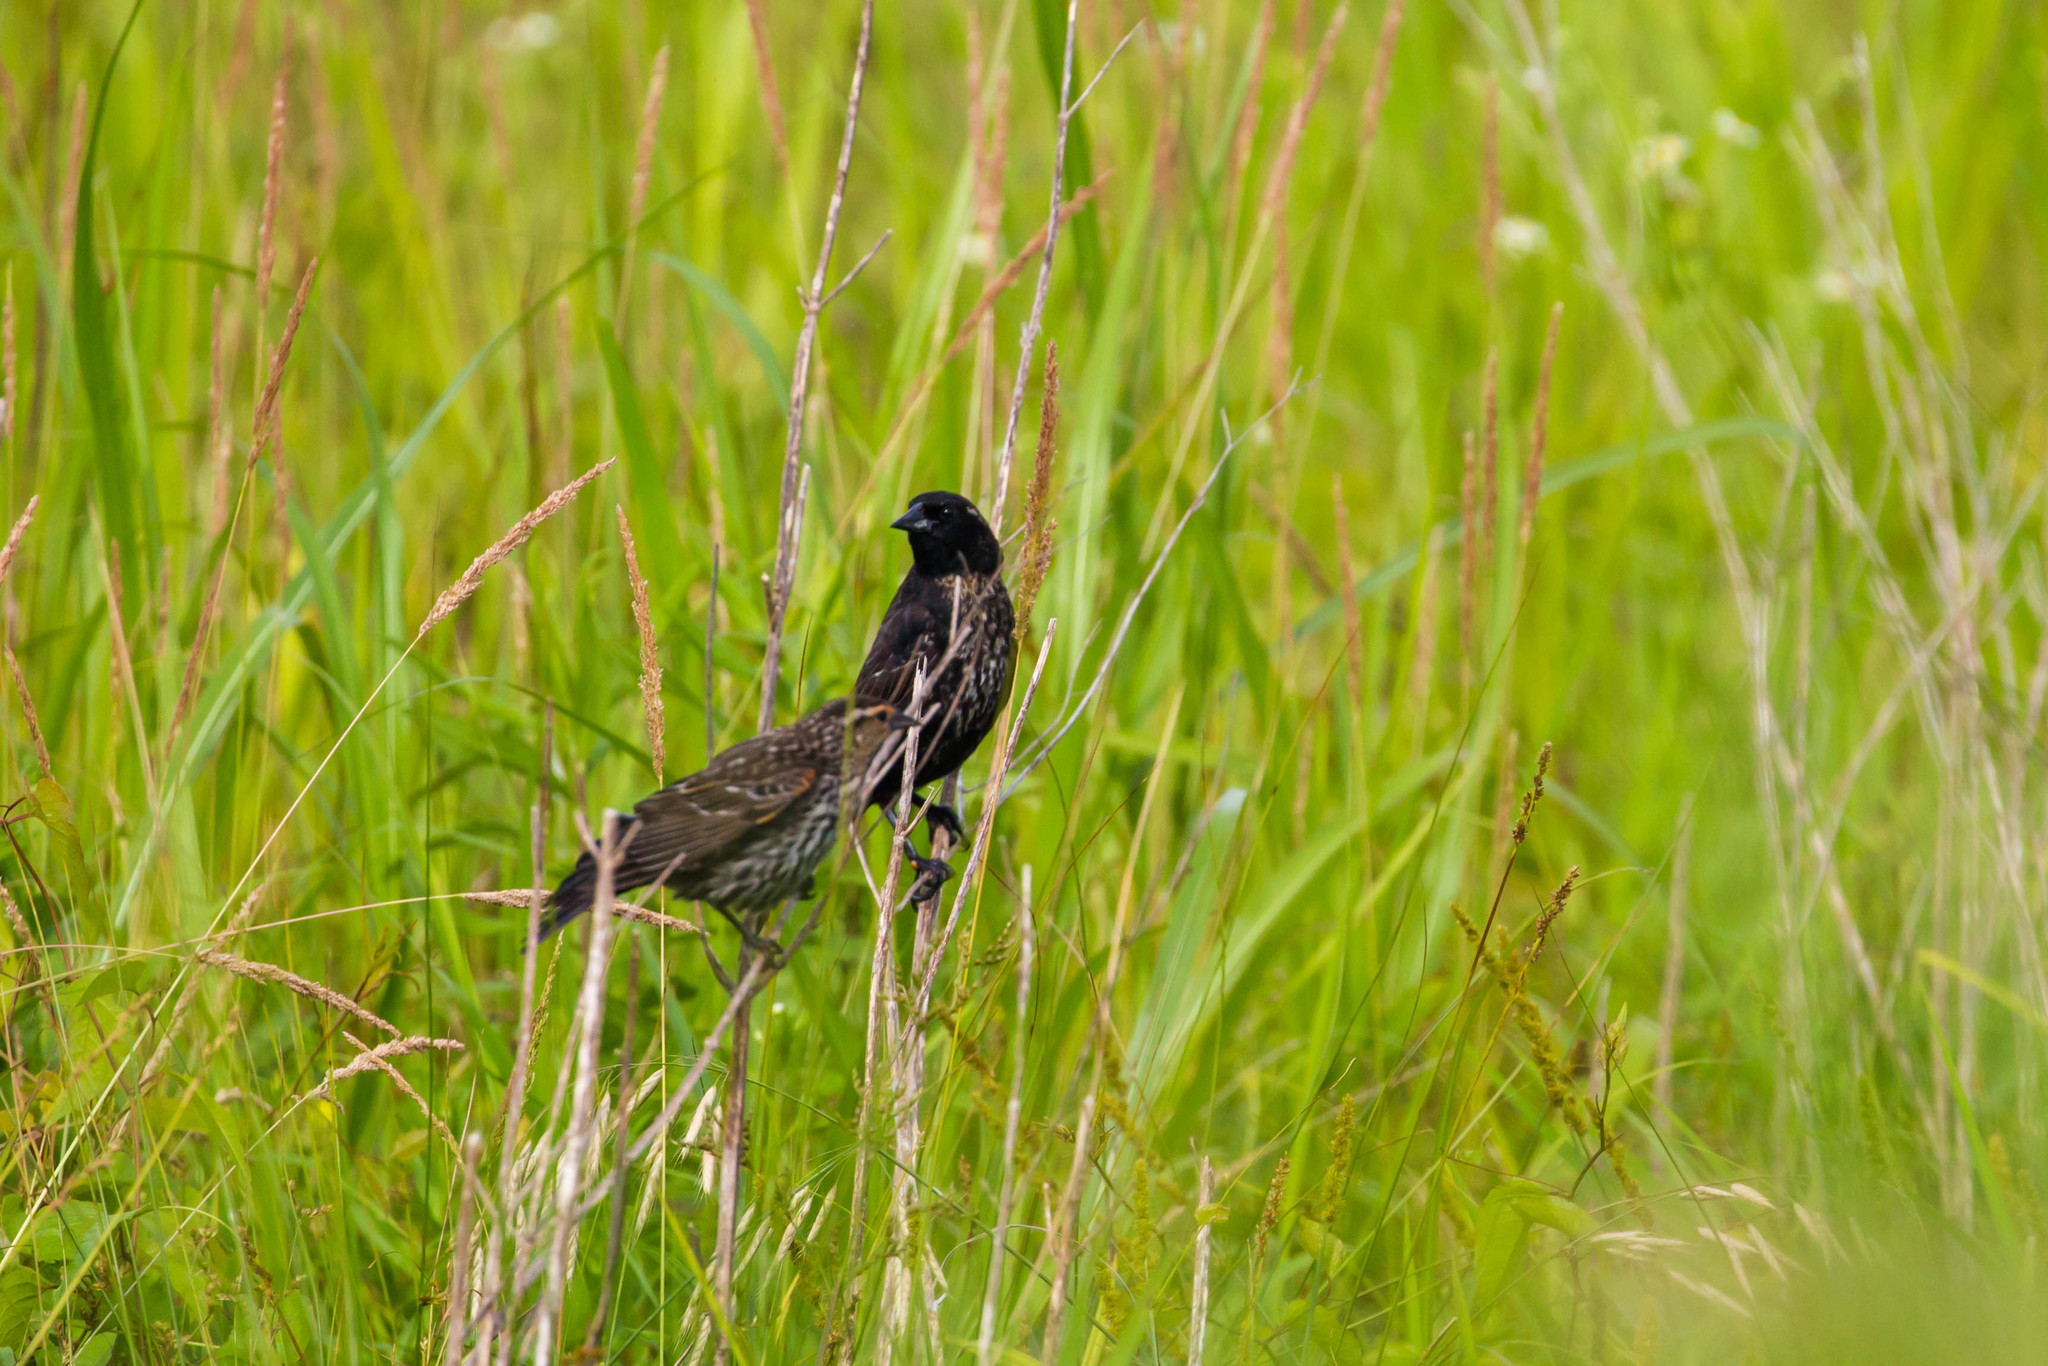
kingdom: Animalia
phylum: Chordata
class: Aves
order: Passeriformes
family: Icteridae
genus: Agelaius
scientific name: Agelaius phoeniceus
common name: Red-winged blackbird
